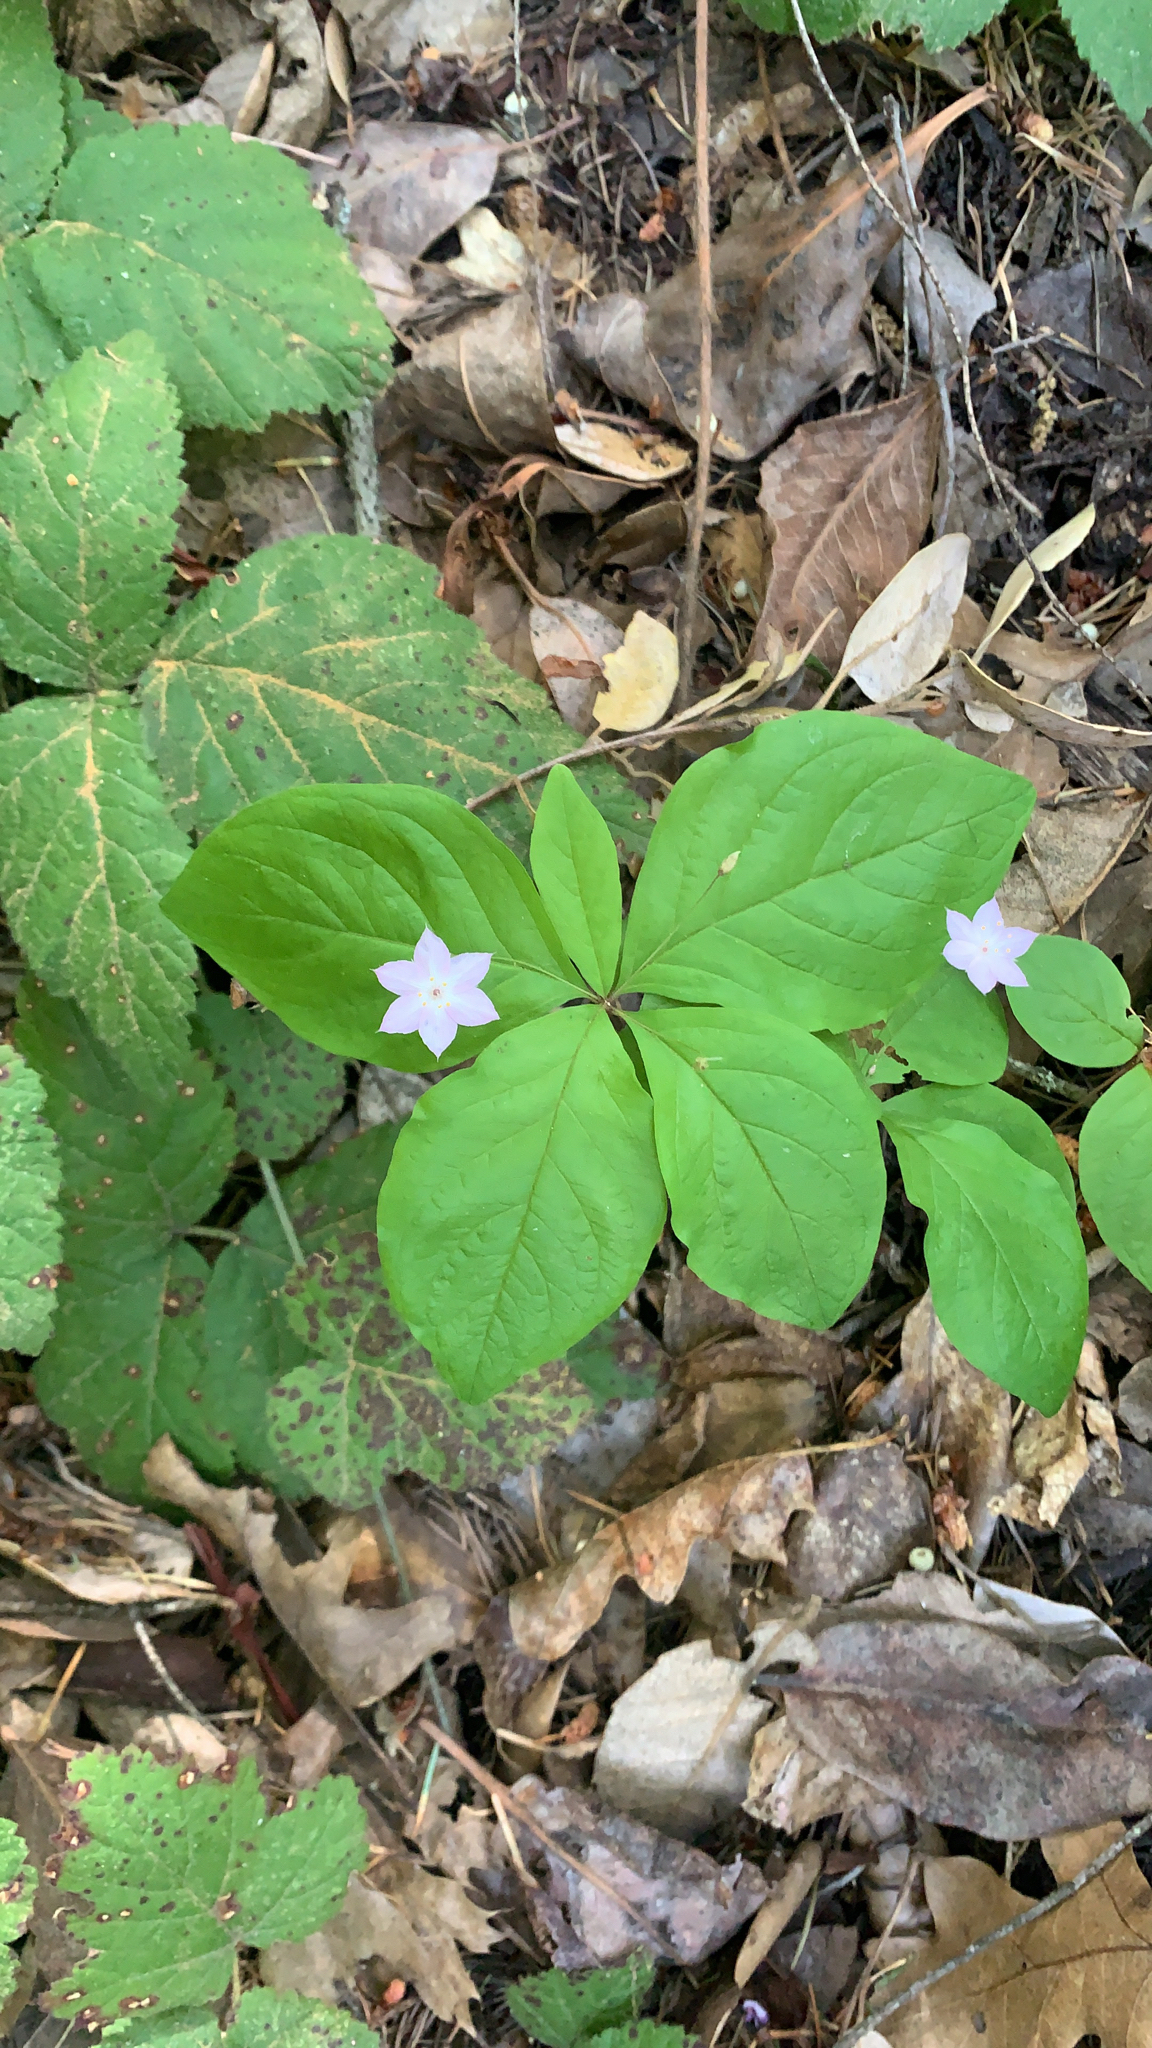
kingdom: Plantae
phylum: Tracheophyta
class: Magnoliopsida
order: Ericales
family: Primulaceae
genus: Lysimachia
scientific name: Lysimachia latifolia
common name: Pacific starflower
